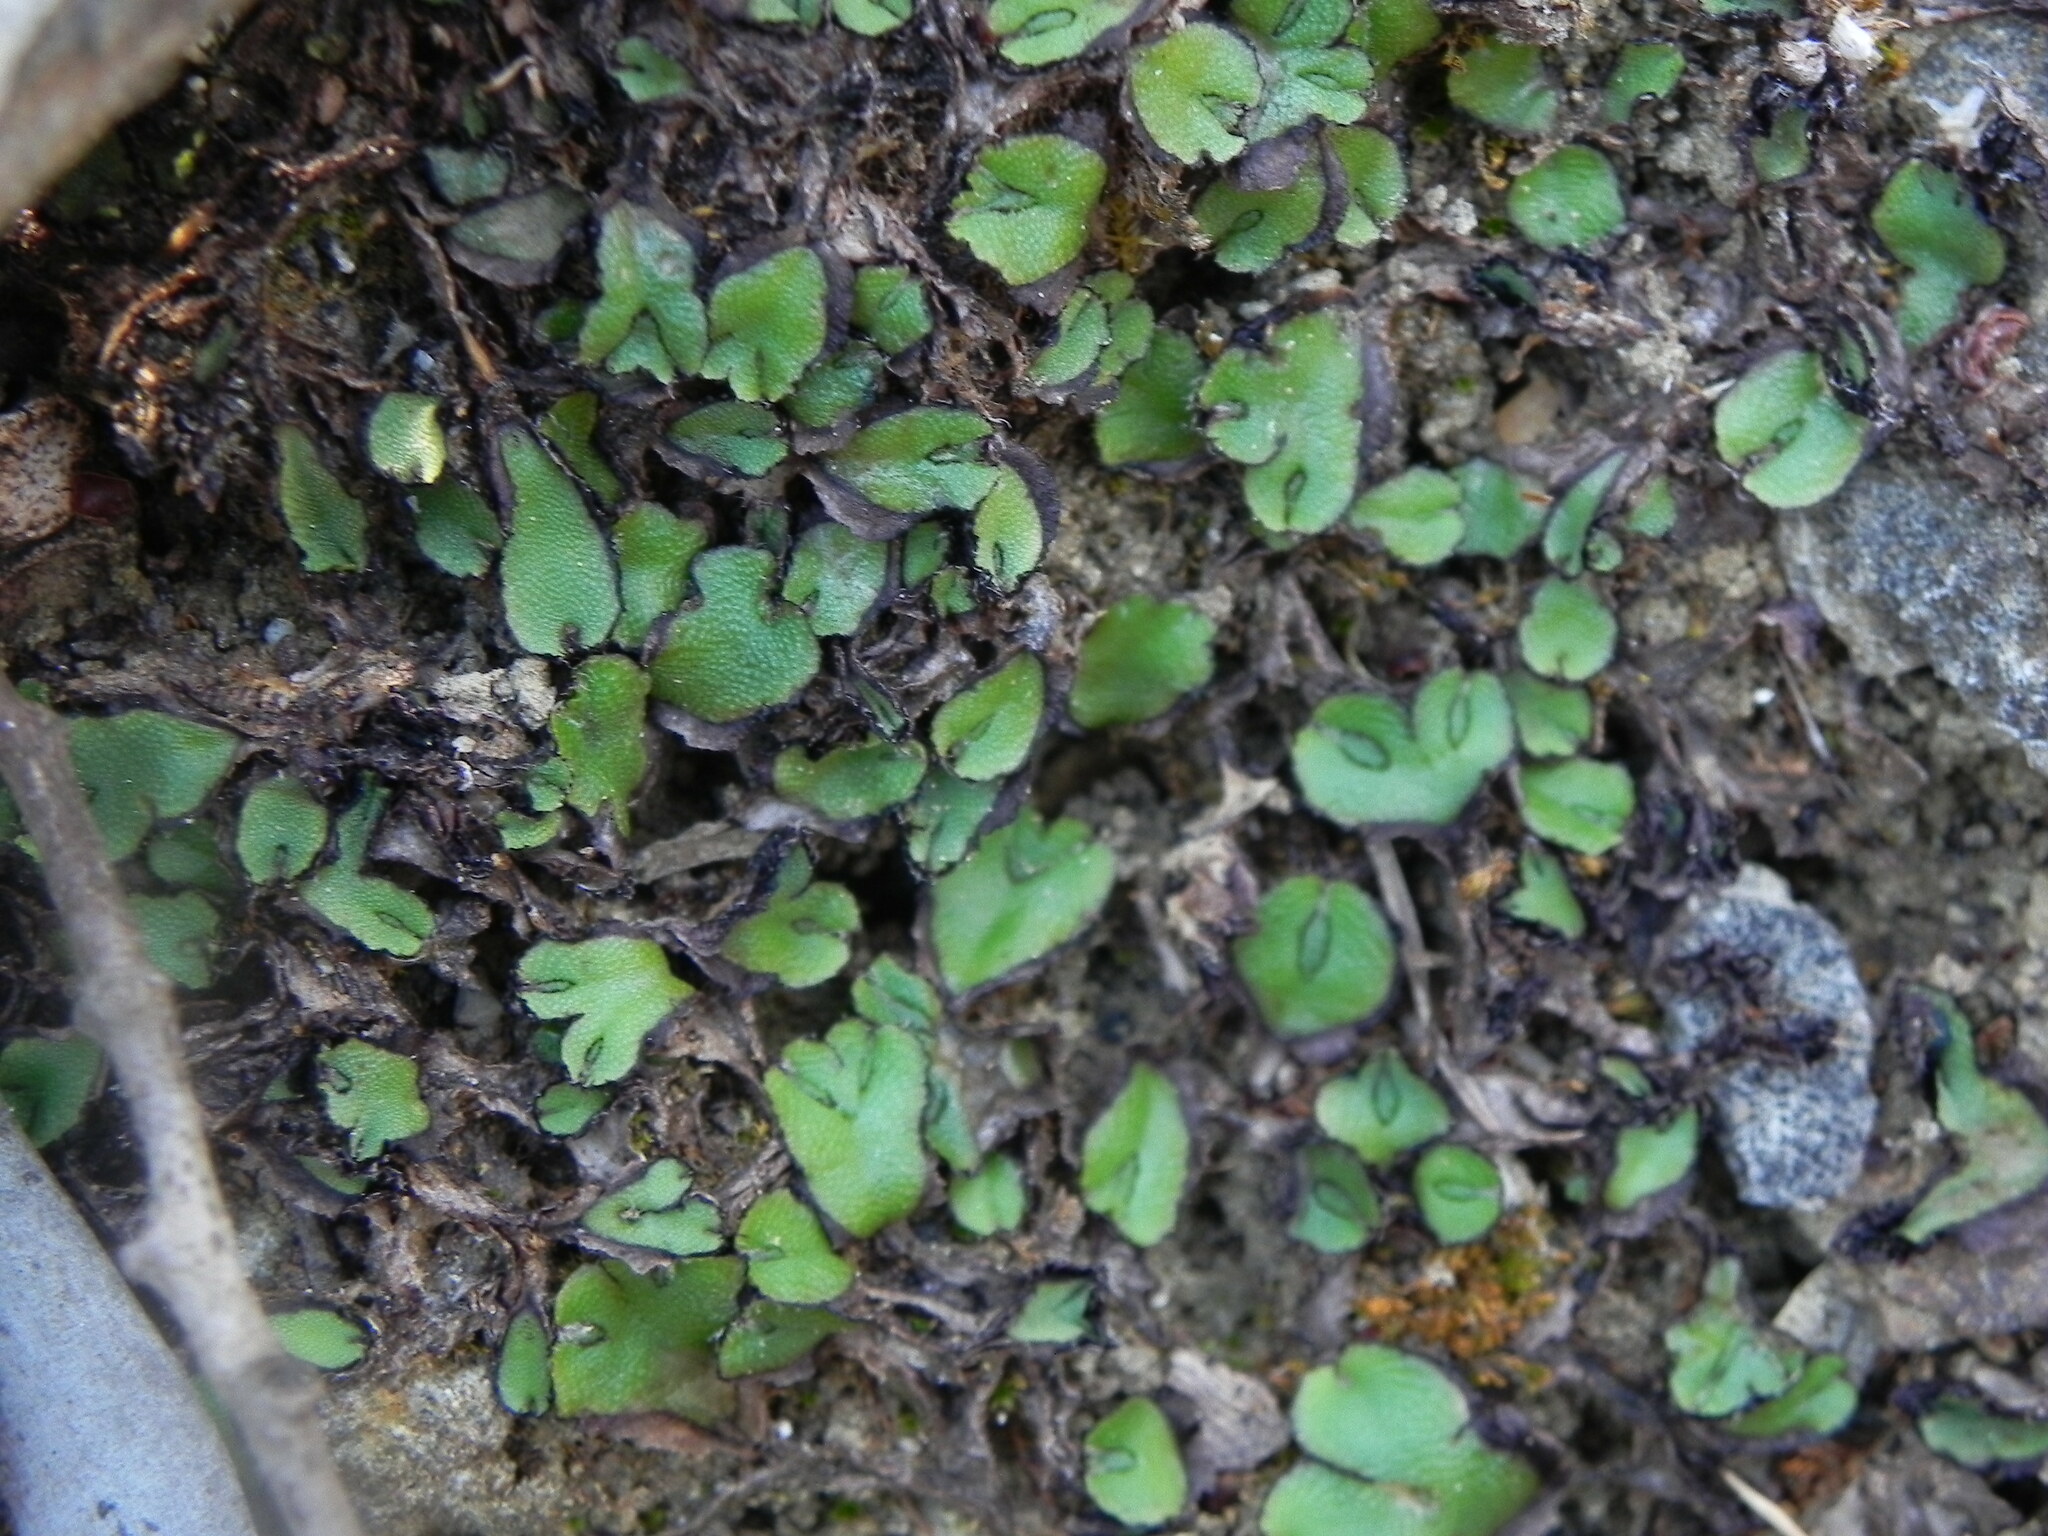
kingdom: Plantae
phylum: Marchantiophyta
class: Marchantiopsida
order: Marchantiales
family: Aytoniaceae
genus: Asterella
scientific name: Asterella californica
